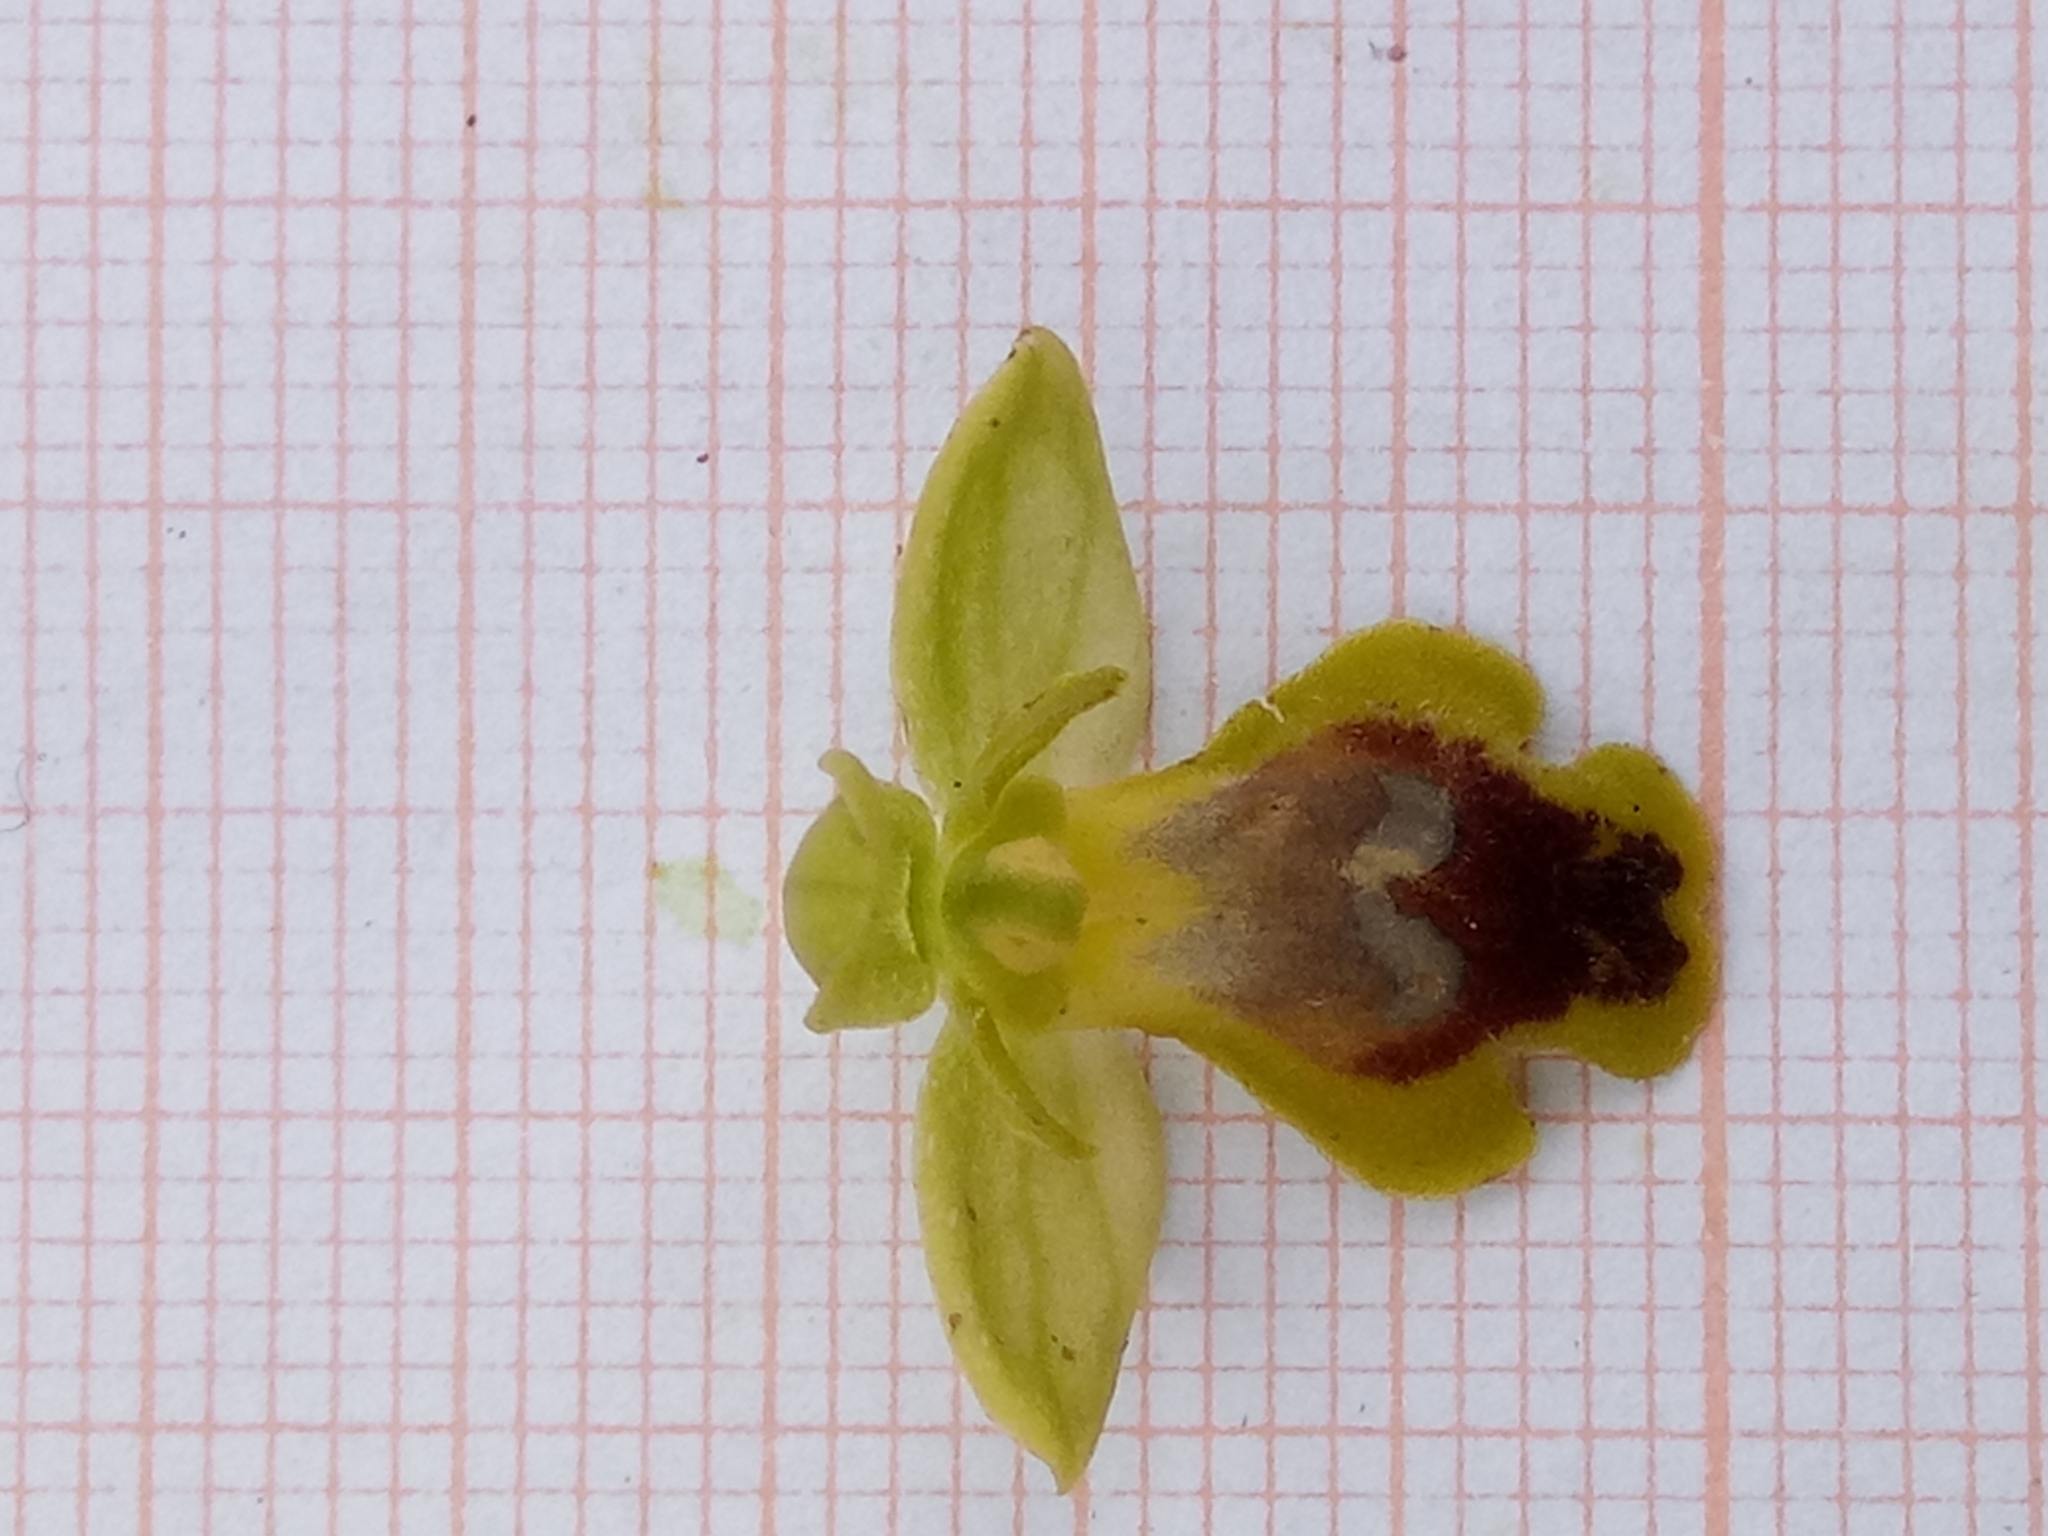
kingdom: Plantae
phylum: Tracheophyta
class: Liliopsida
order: Asparagales
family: Orchidaceae
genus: Ophrys
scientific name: Ophrys battandieri
